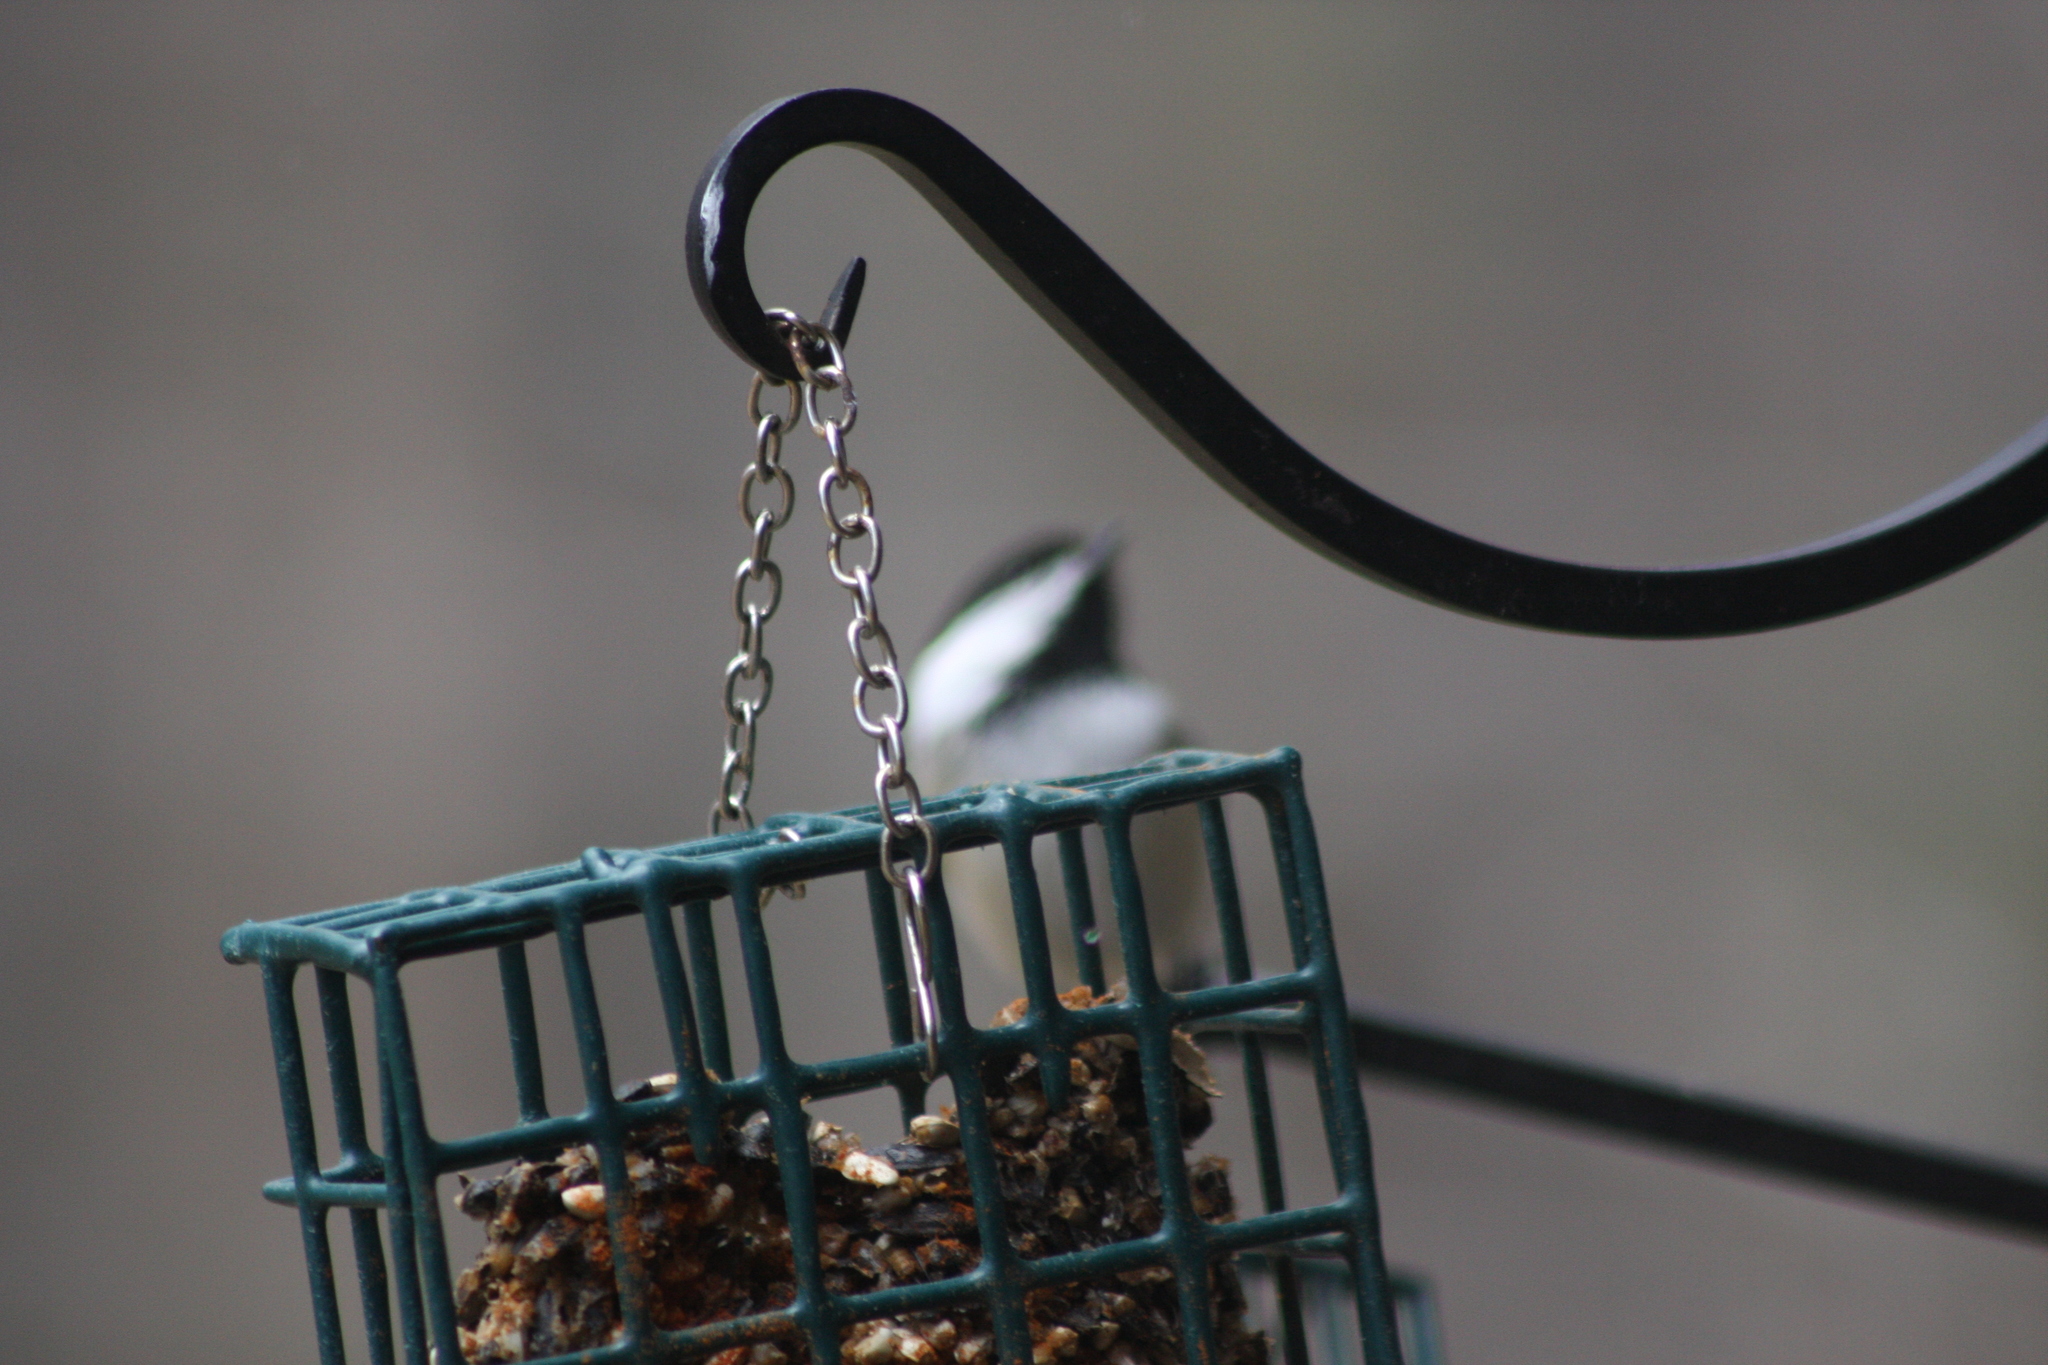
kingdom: Animalia
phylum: Chordata
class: Aves
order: Passeriformes
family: Paridae
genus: Poecile
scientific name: Poecile atricapillus
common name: Black-capped chickadee
